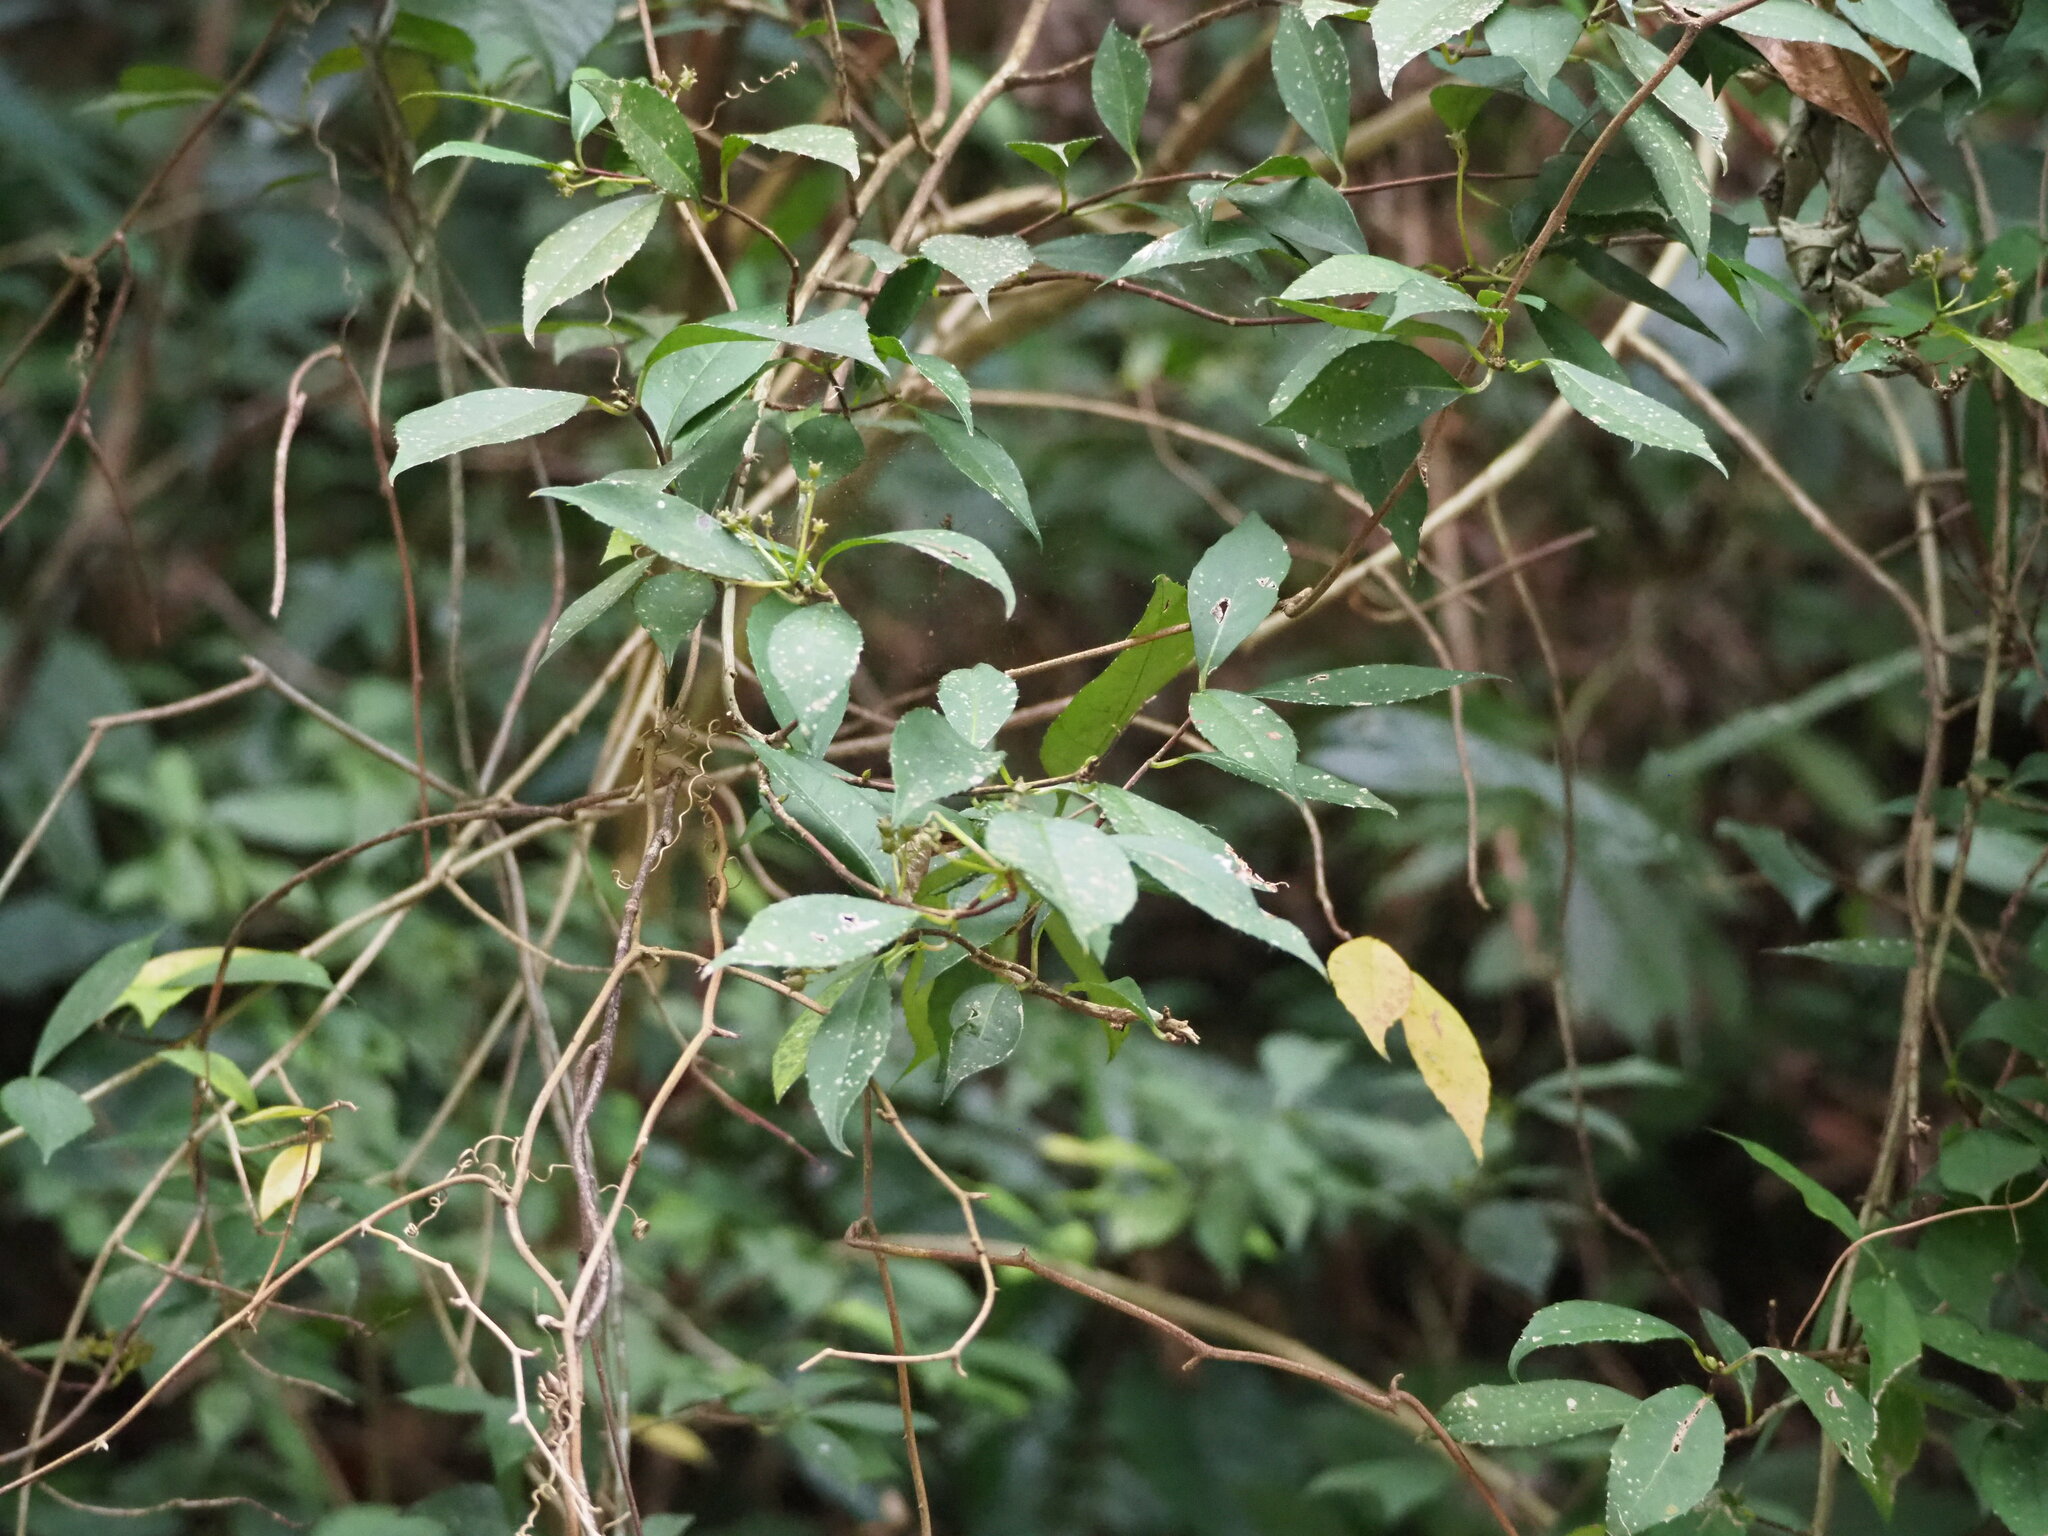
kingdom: Plantae
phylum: Tracheophyta
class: Magnoliopsida
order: Cornales
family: Hydrangeaceae
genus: Hydrangea
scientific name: Hydrangea chinensis
